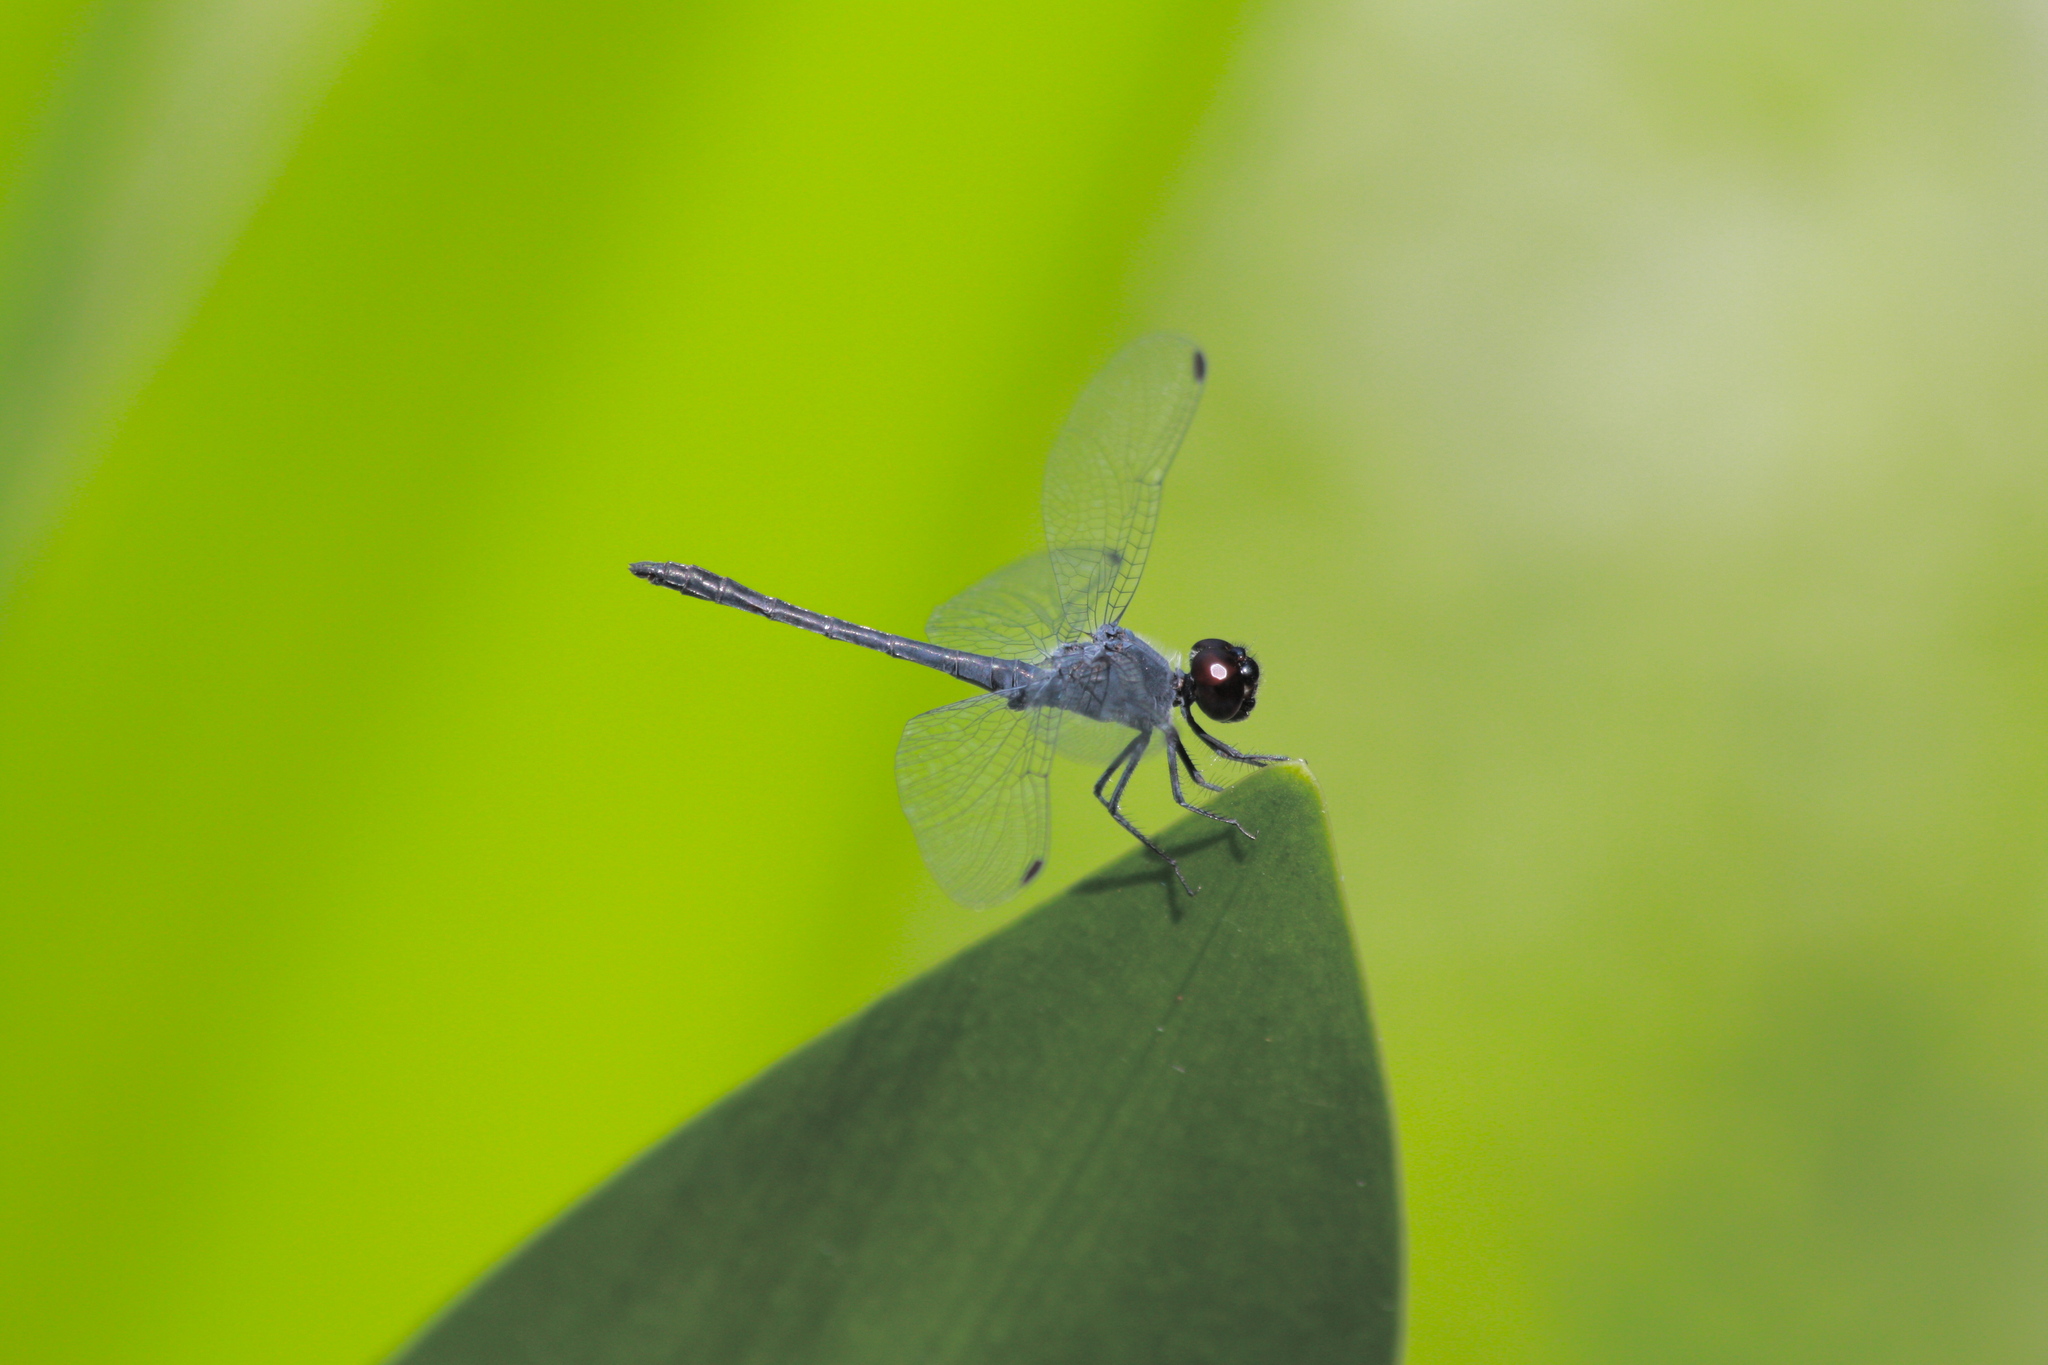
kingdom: Animalia
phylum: Arthropoda
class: Insecta
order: Odonata
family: Libellulidae
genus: Erythrodiplax
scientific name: Erythrodiplax berenice
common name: Seaside dragonlet
